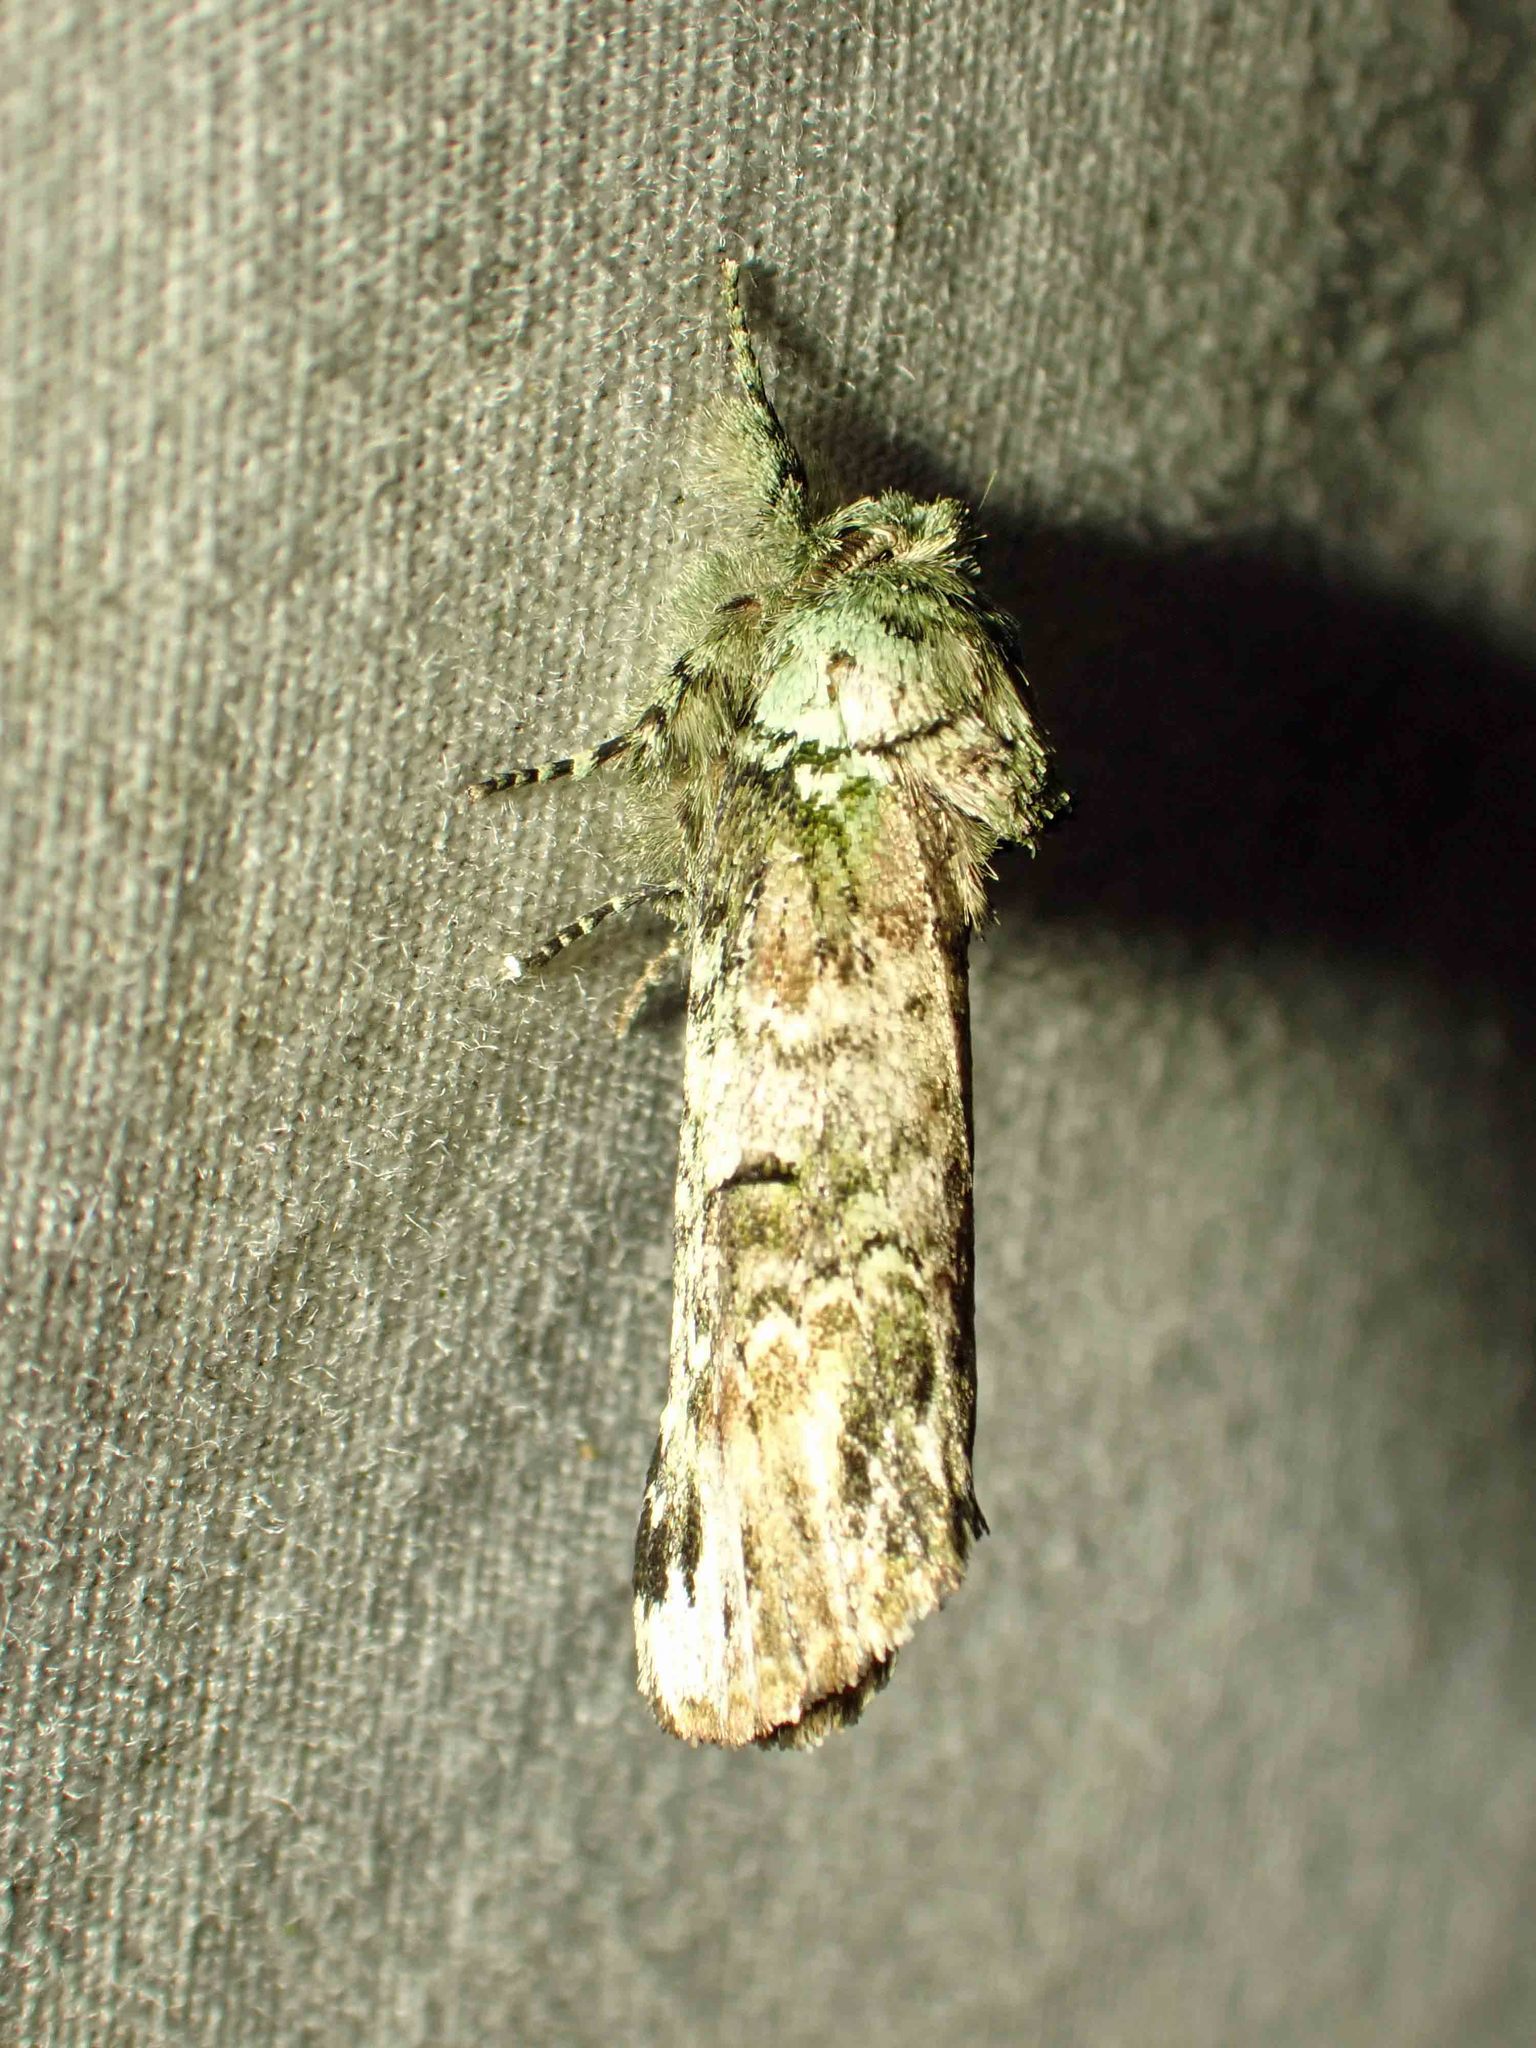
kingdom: Animalia
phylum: Arthropoda
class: Insecta
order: Lepidoptera
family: Notodontidae
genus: Schizura
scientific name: Schizura
